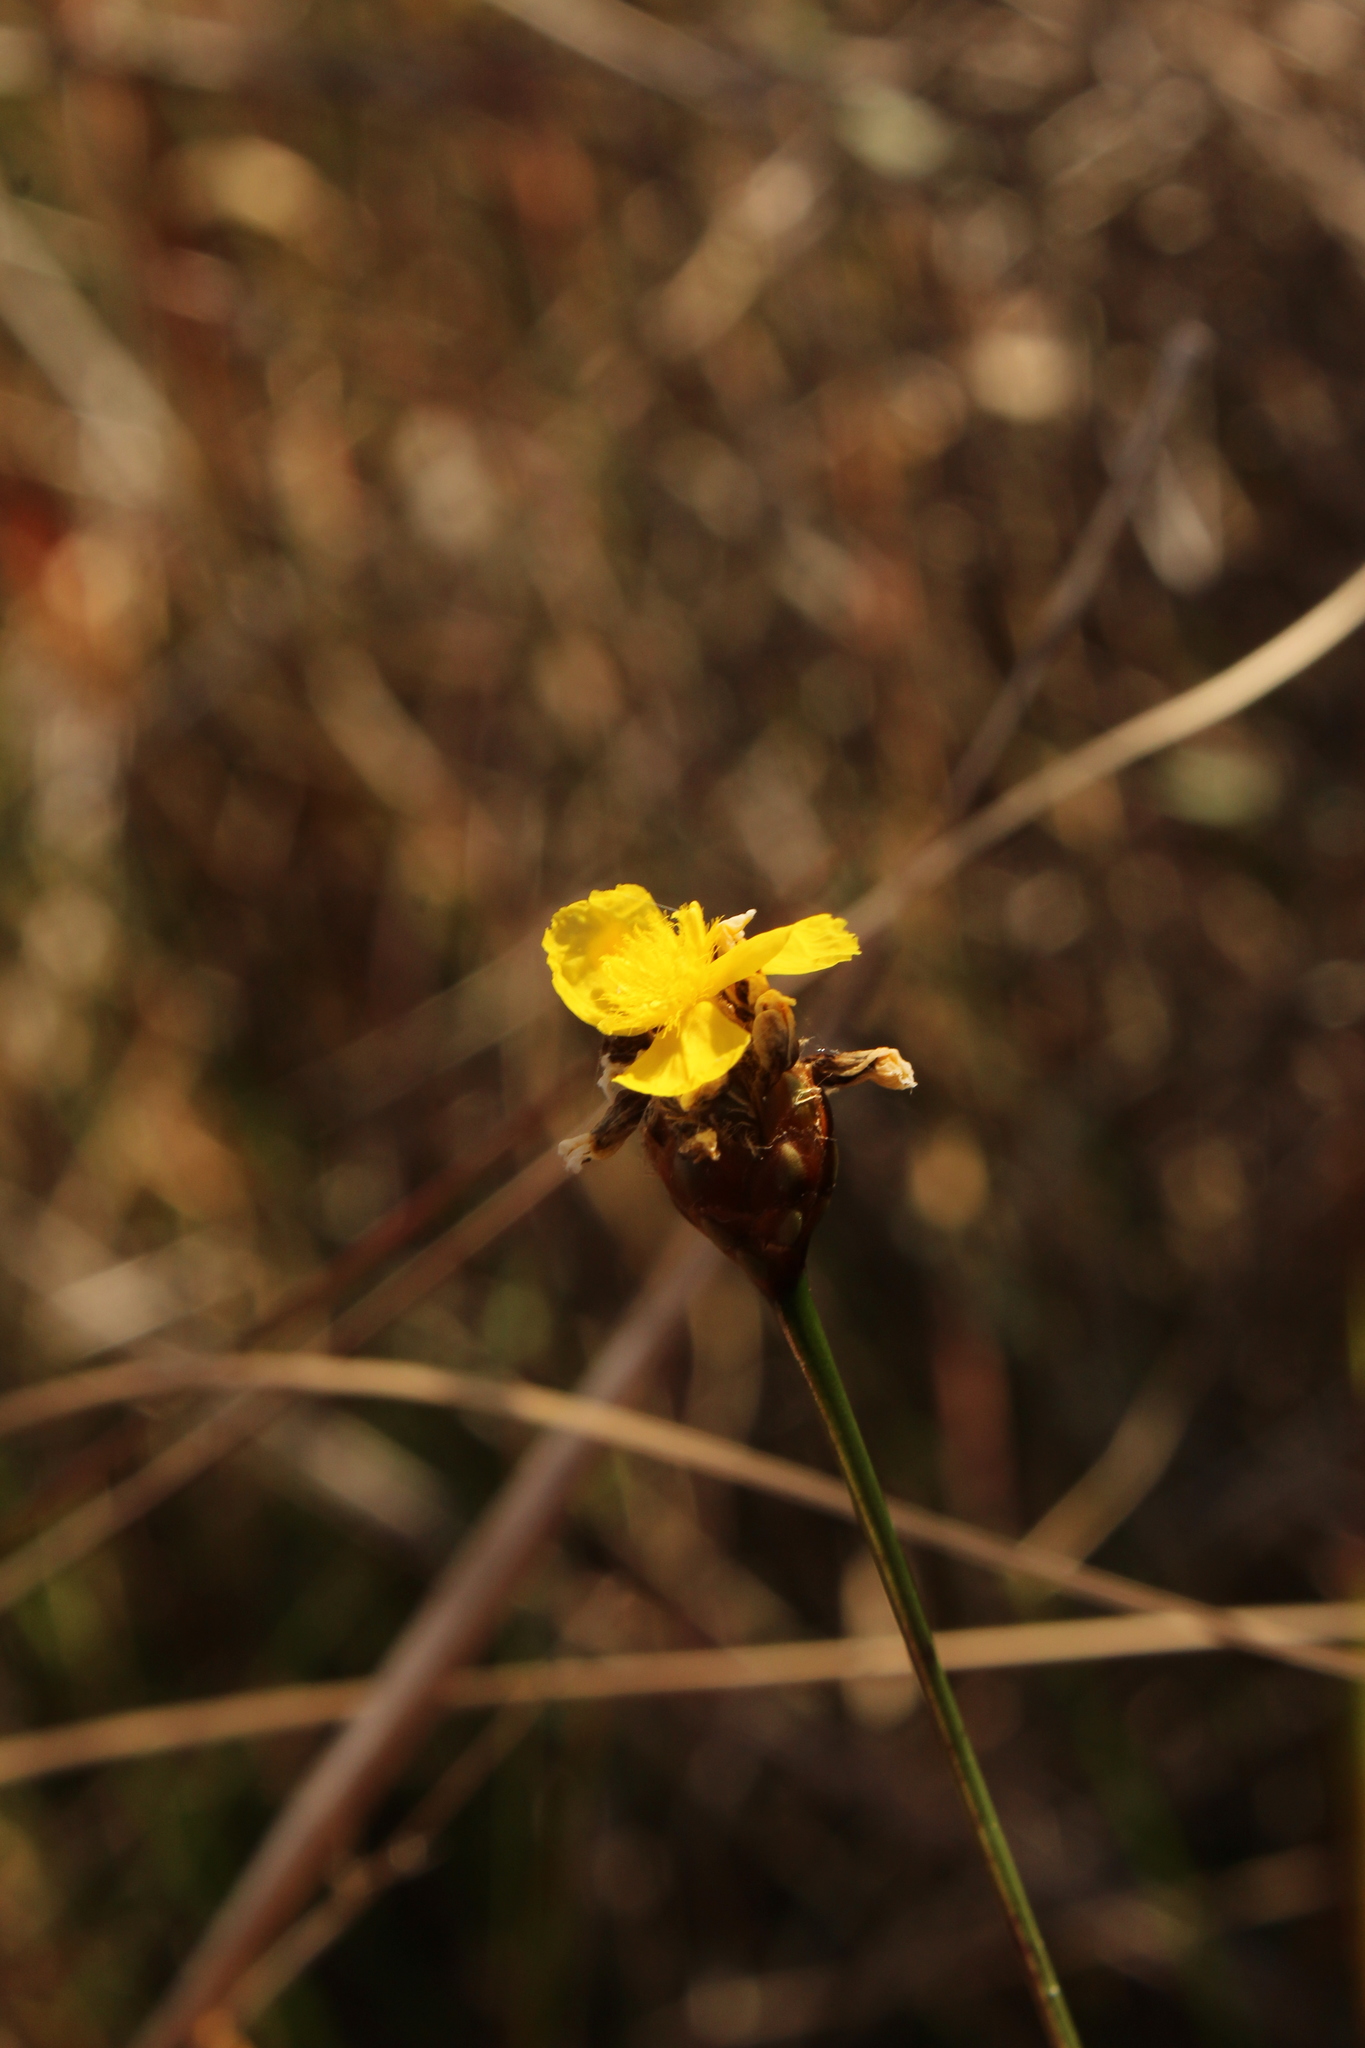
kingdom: Plantae
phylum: Tracheophyta
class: Liliopsida
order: Poales
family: Xyridaceae
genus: Xyris
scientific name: Xyris fimbriata
